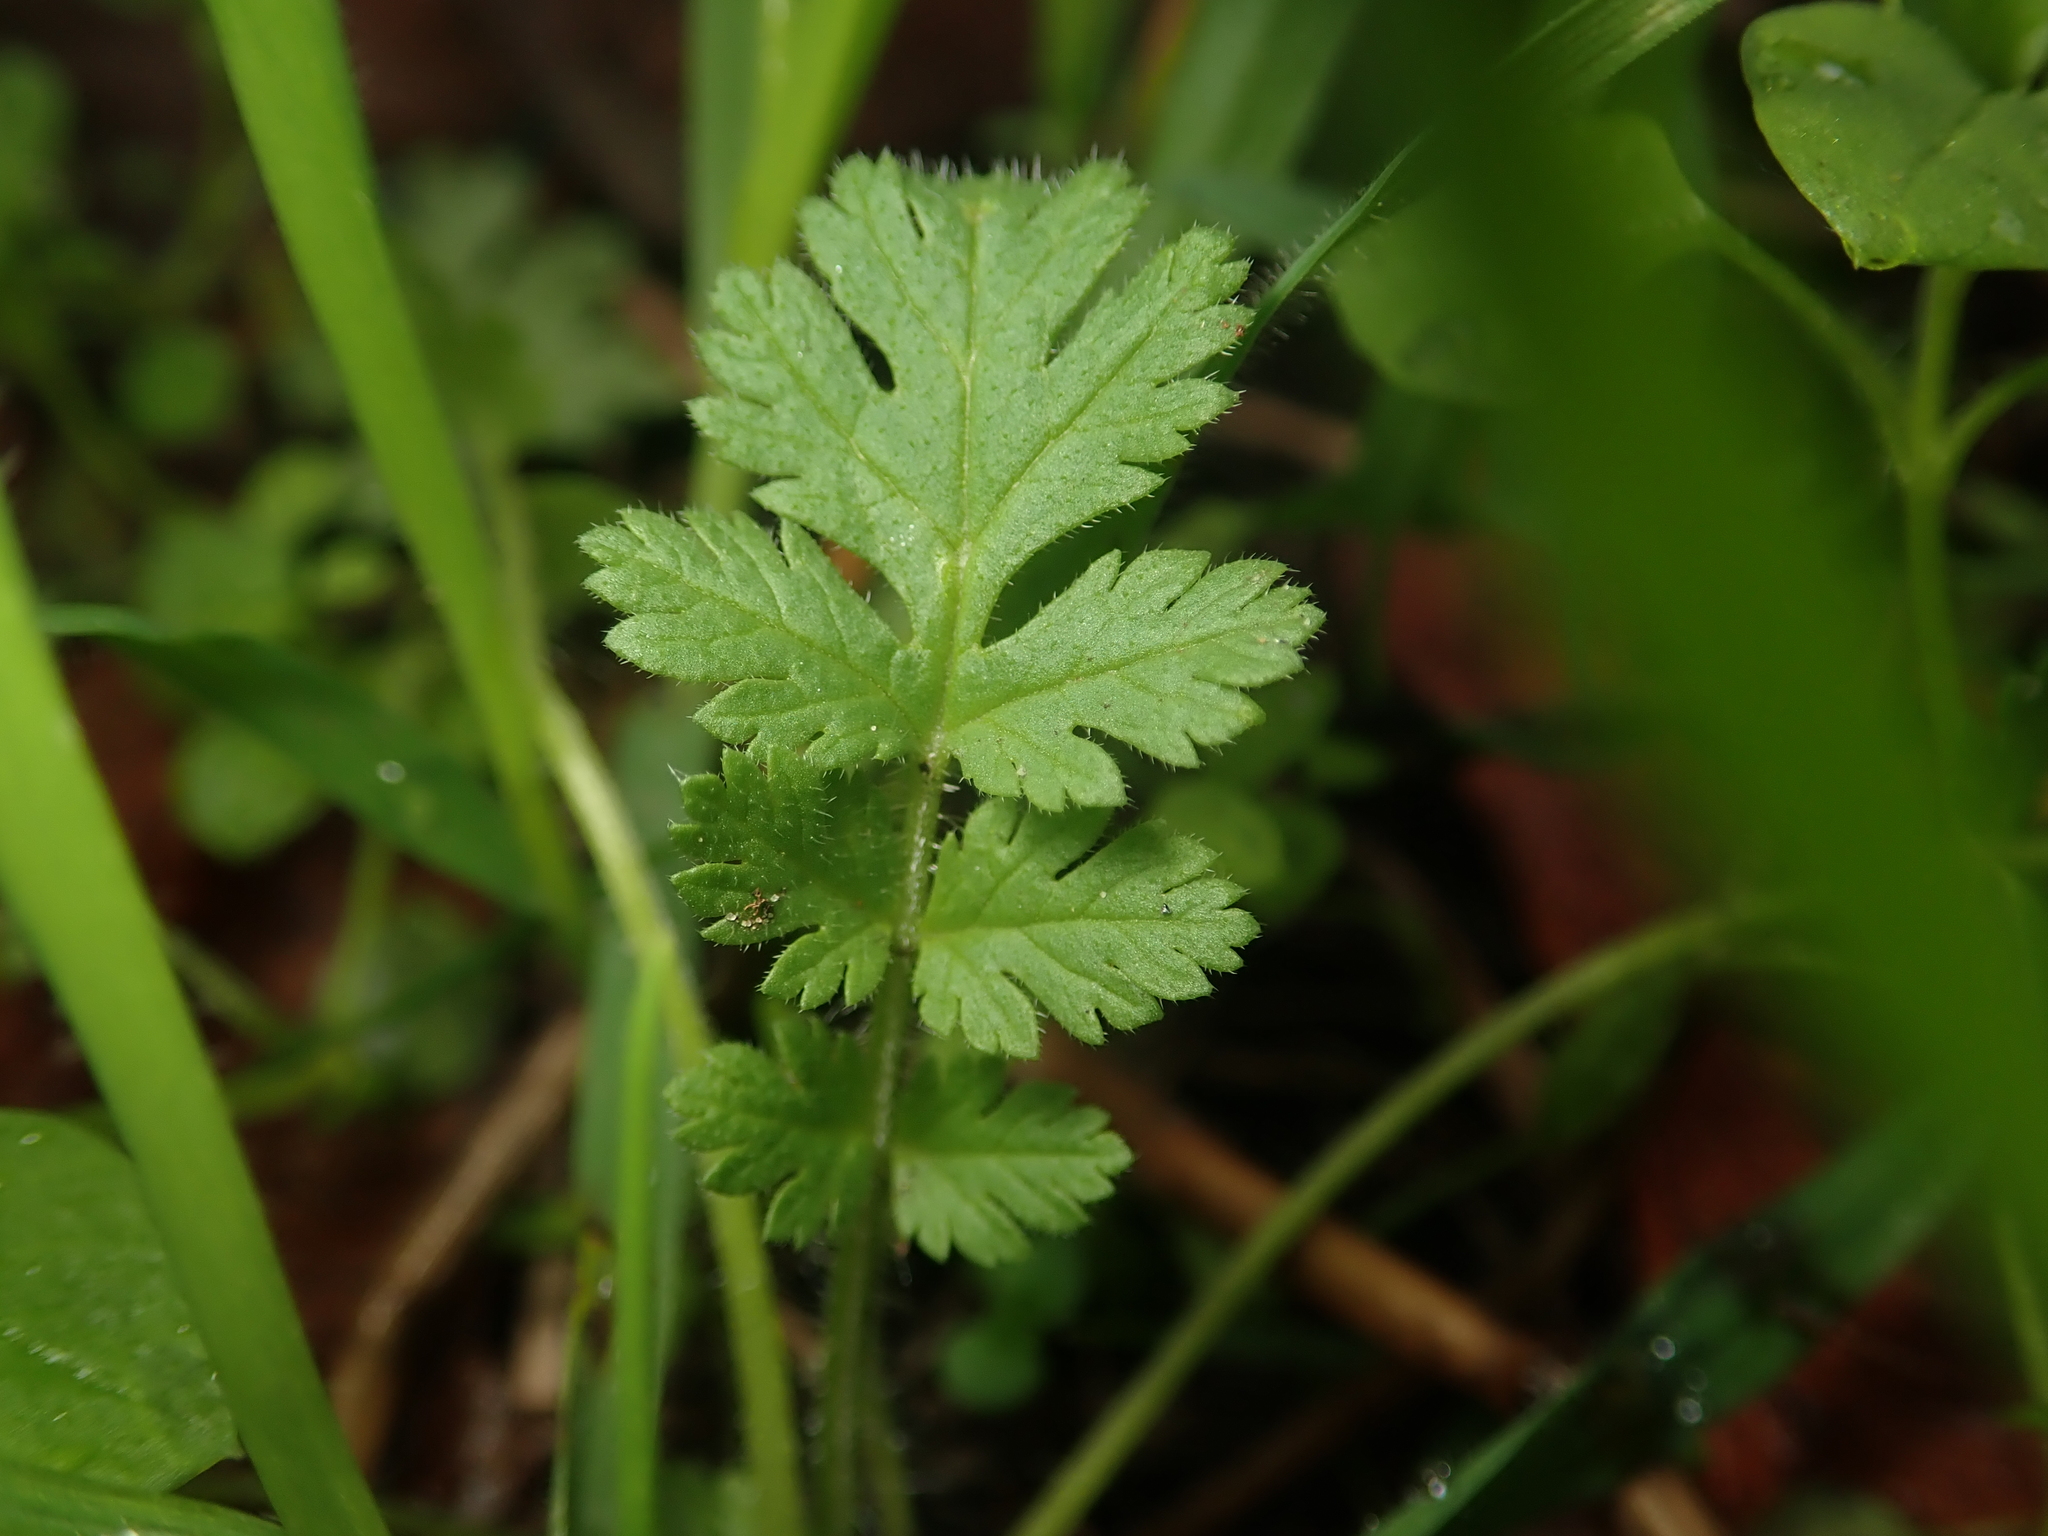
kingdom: Plantae
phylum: Tracheophyta
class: Magnoliopsida
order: Geraniales
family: Geraniaceae
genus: Erodium
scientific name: Erodium cicutarium
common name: Common stork's-bill
